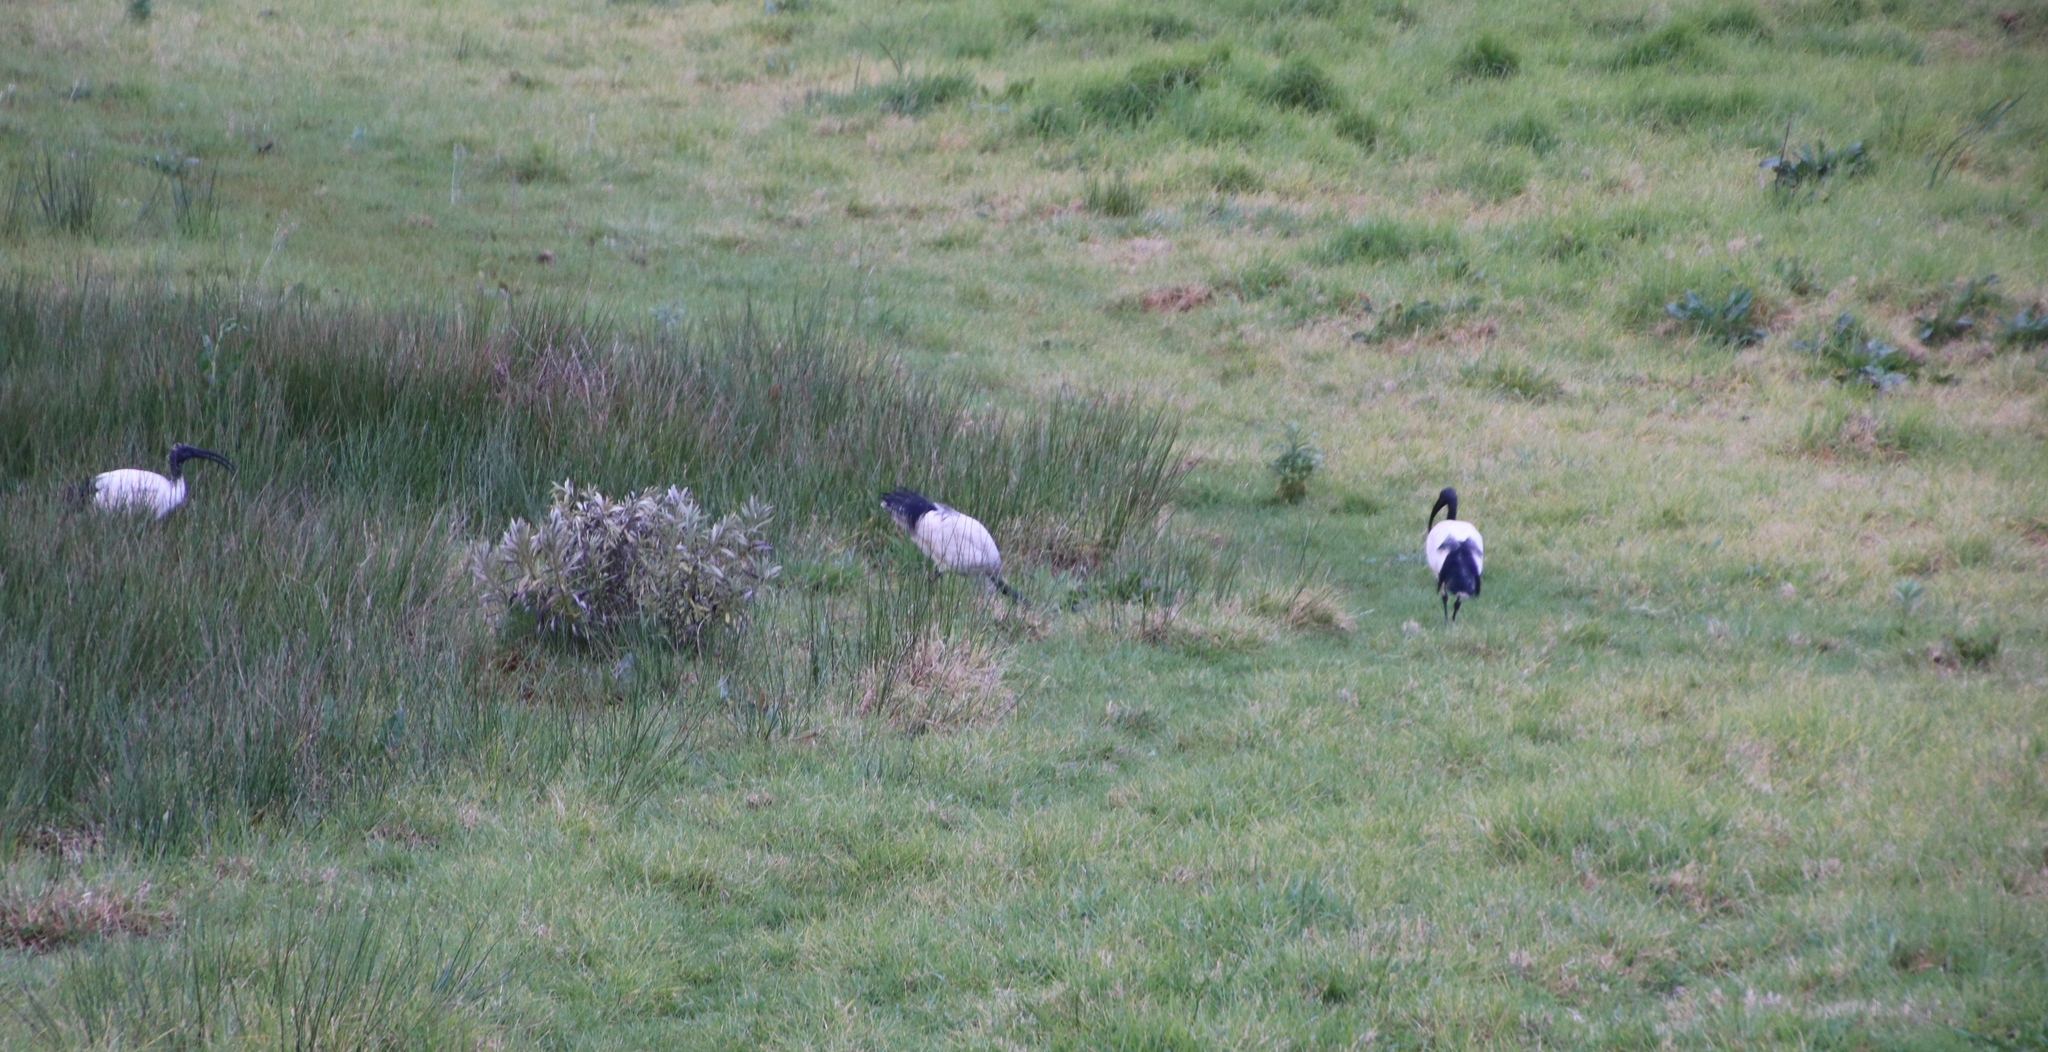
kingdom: Animalia
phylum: Chordata
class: Aves
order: Pelecaniformes
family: Threskiornithidae
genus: Threskiornis
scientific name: Threskiornis aethiopicus
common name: Sacred ibis
